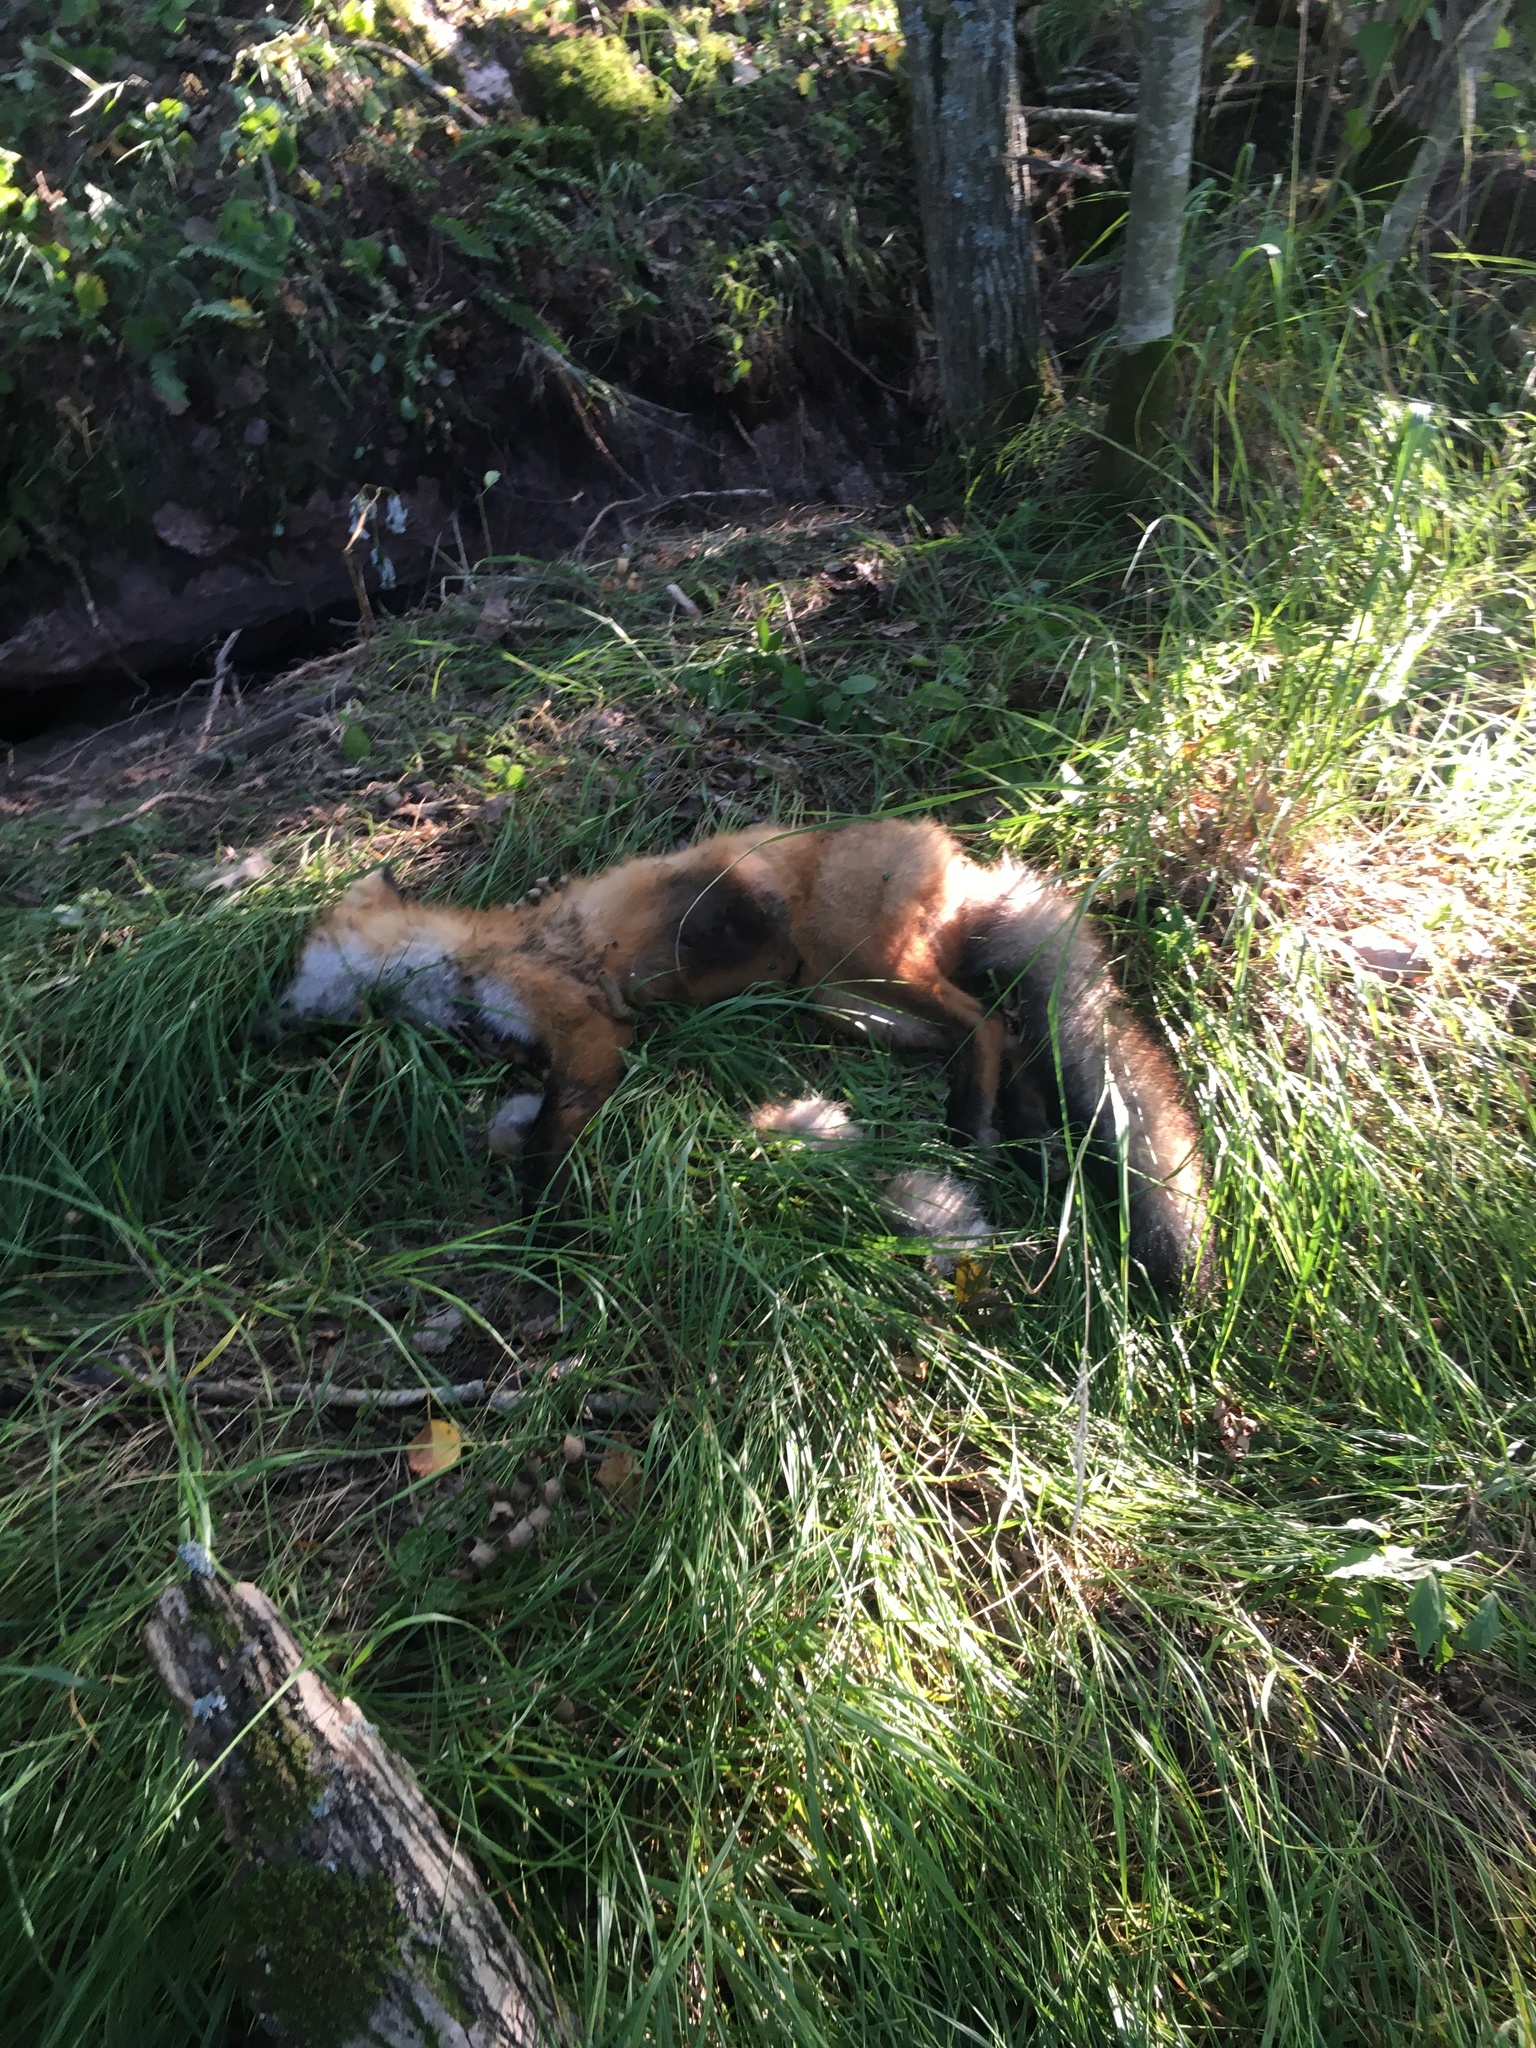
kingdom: Animalia
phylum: Chordata
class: Mammalia
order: Carnivora
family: Canidae
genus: Vulpes
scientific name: Vulpes vulpes
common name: Red fox
